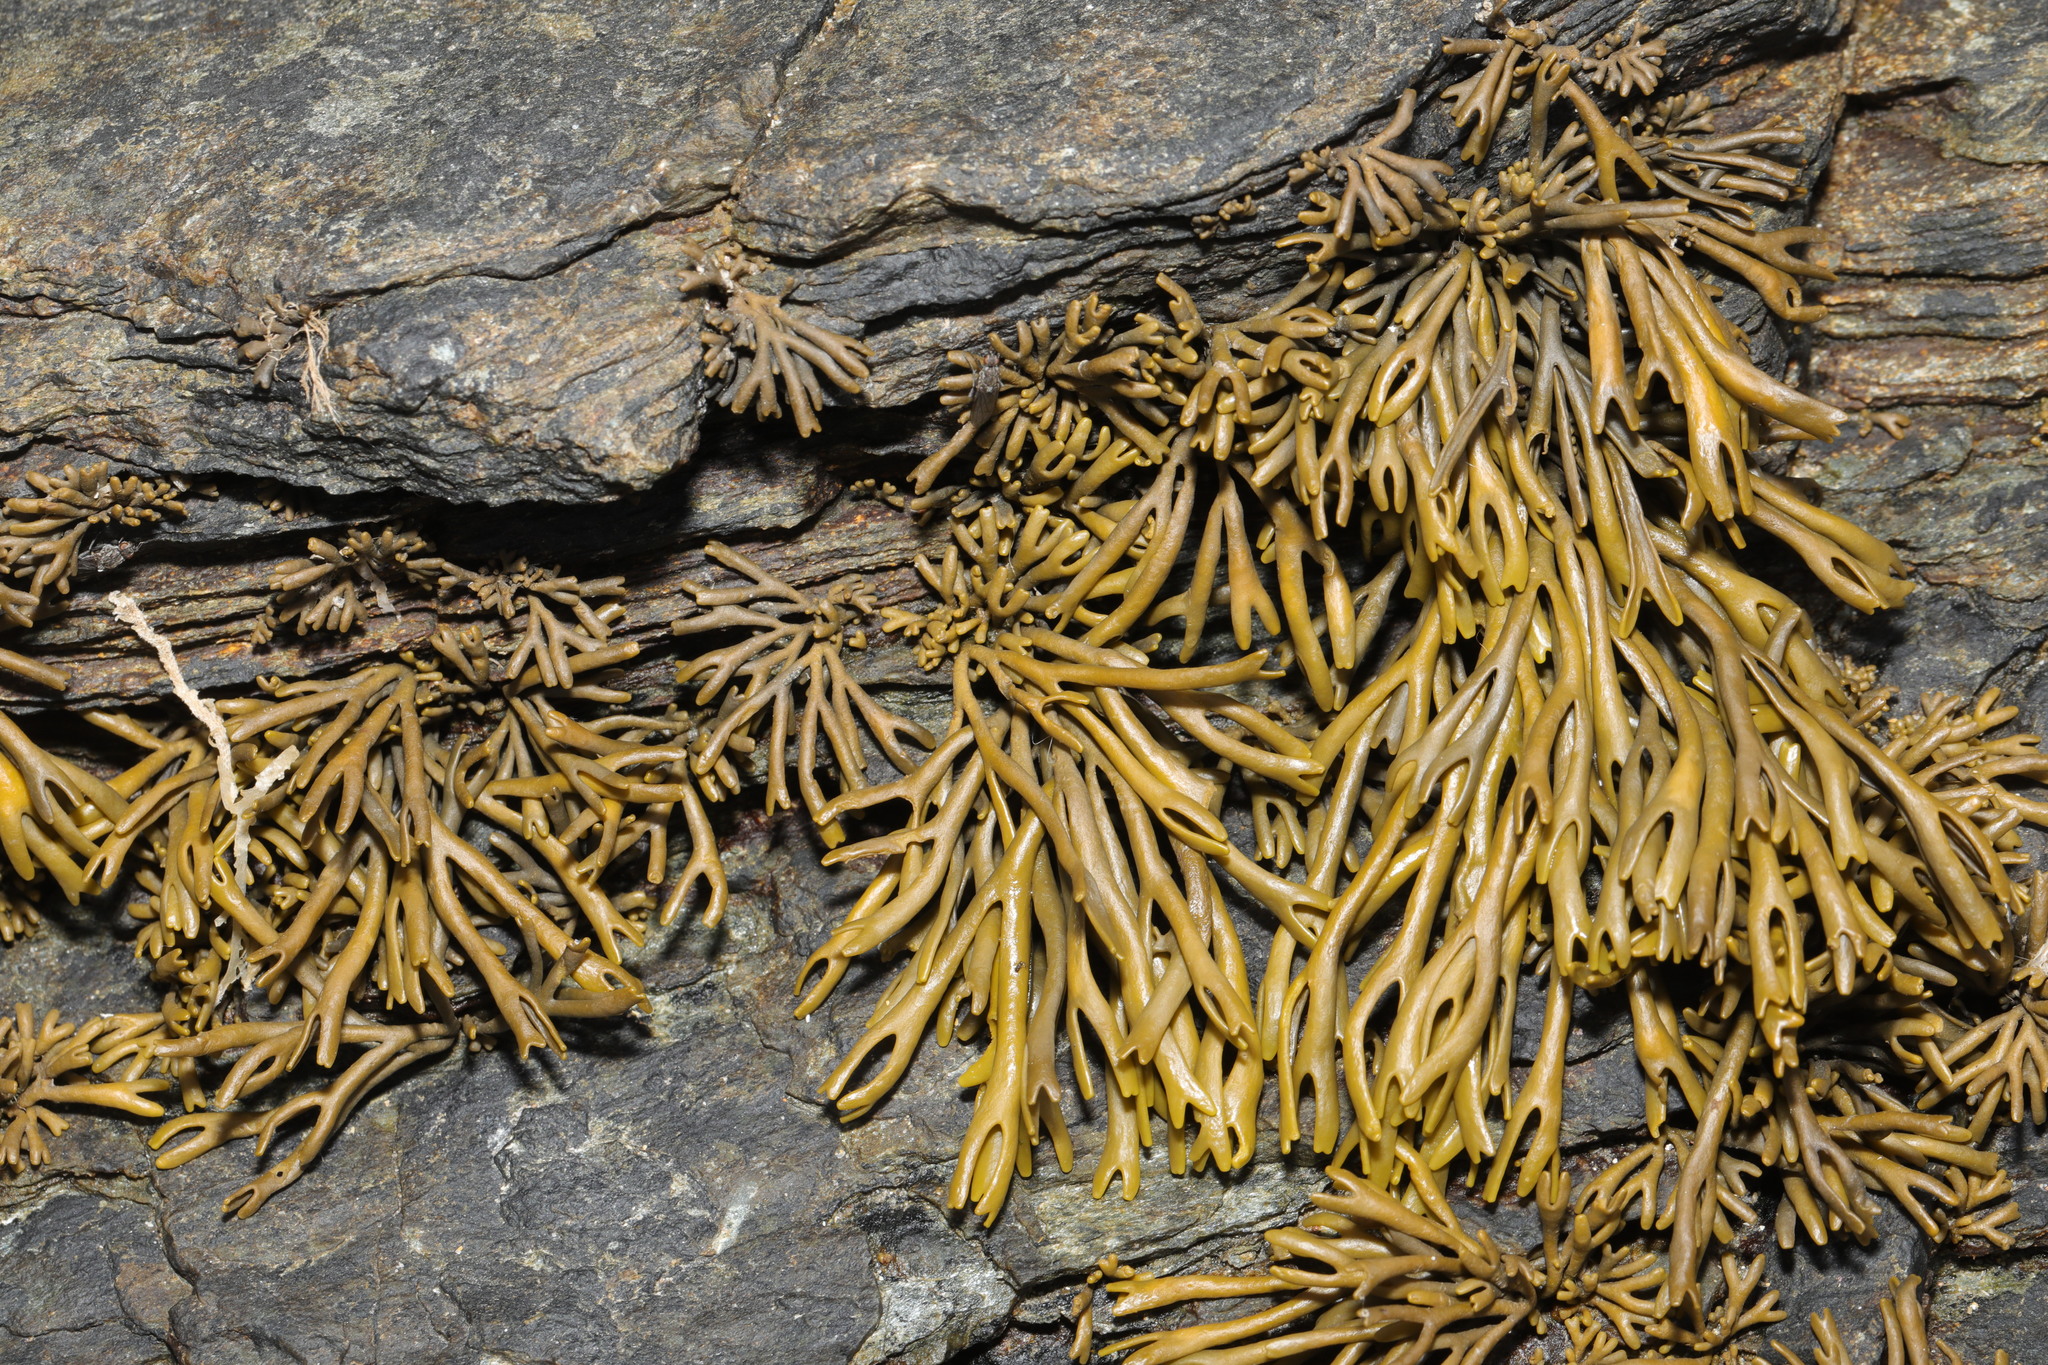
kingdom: Chromista
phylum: Ochrophyta
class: Phaeophyceae
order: Fucales
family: Fucaceae
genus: Pelvetia
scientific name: Pelvetia canaliculata
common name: Channelled wrack
